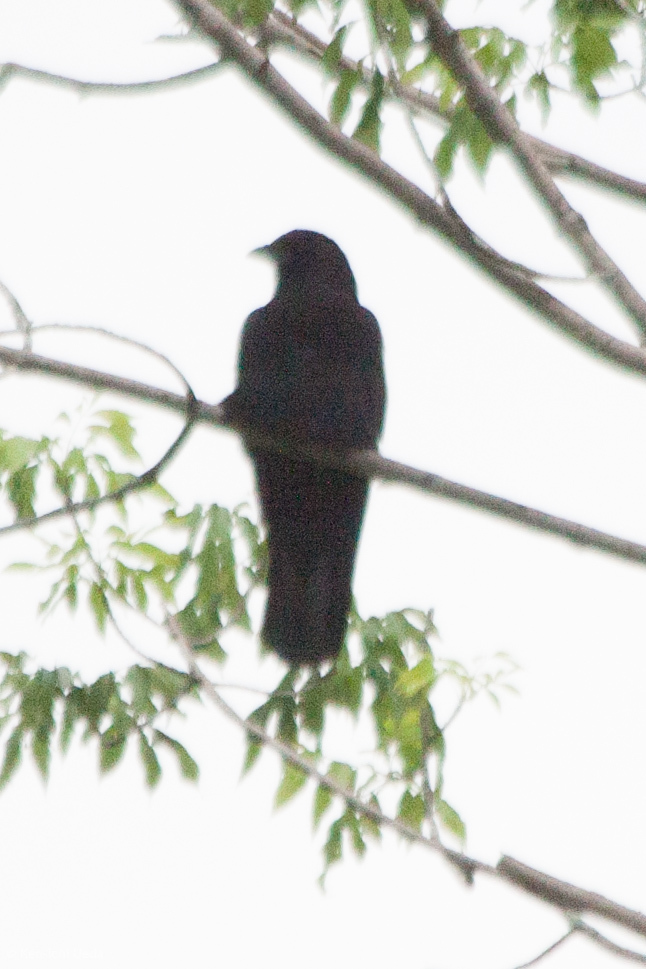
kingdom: Animalia
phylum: Chordata
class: Aves
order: Passeriformes
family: Corvidae
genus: Corvus
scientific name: Corvus brachyrhynchos
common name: American crow
